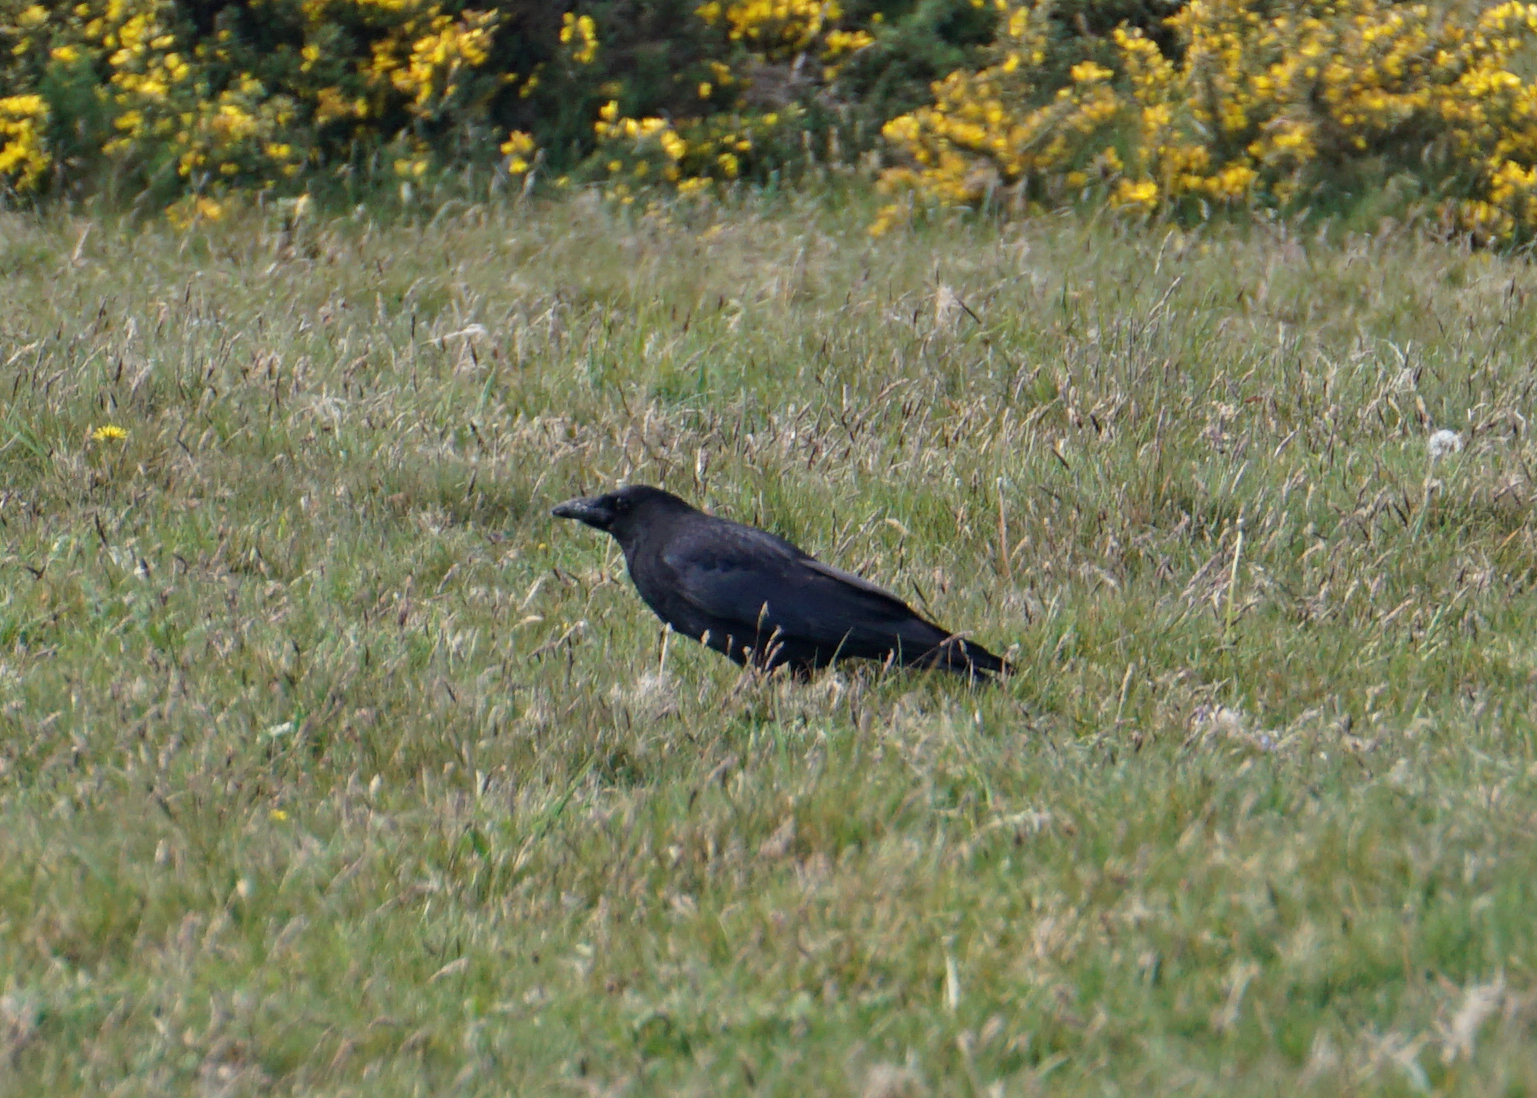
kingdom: Animalia
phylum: Chordata
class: Aves
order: Passeriformes
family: Corvidae
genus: Corvus
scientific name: Corvus corone
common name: Carrion crow
